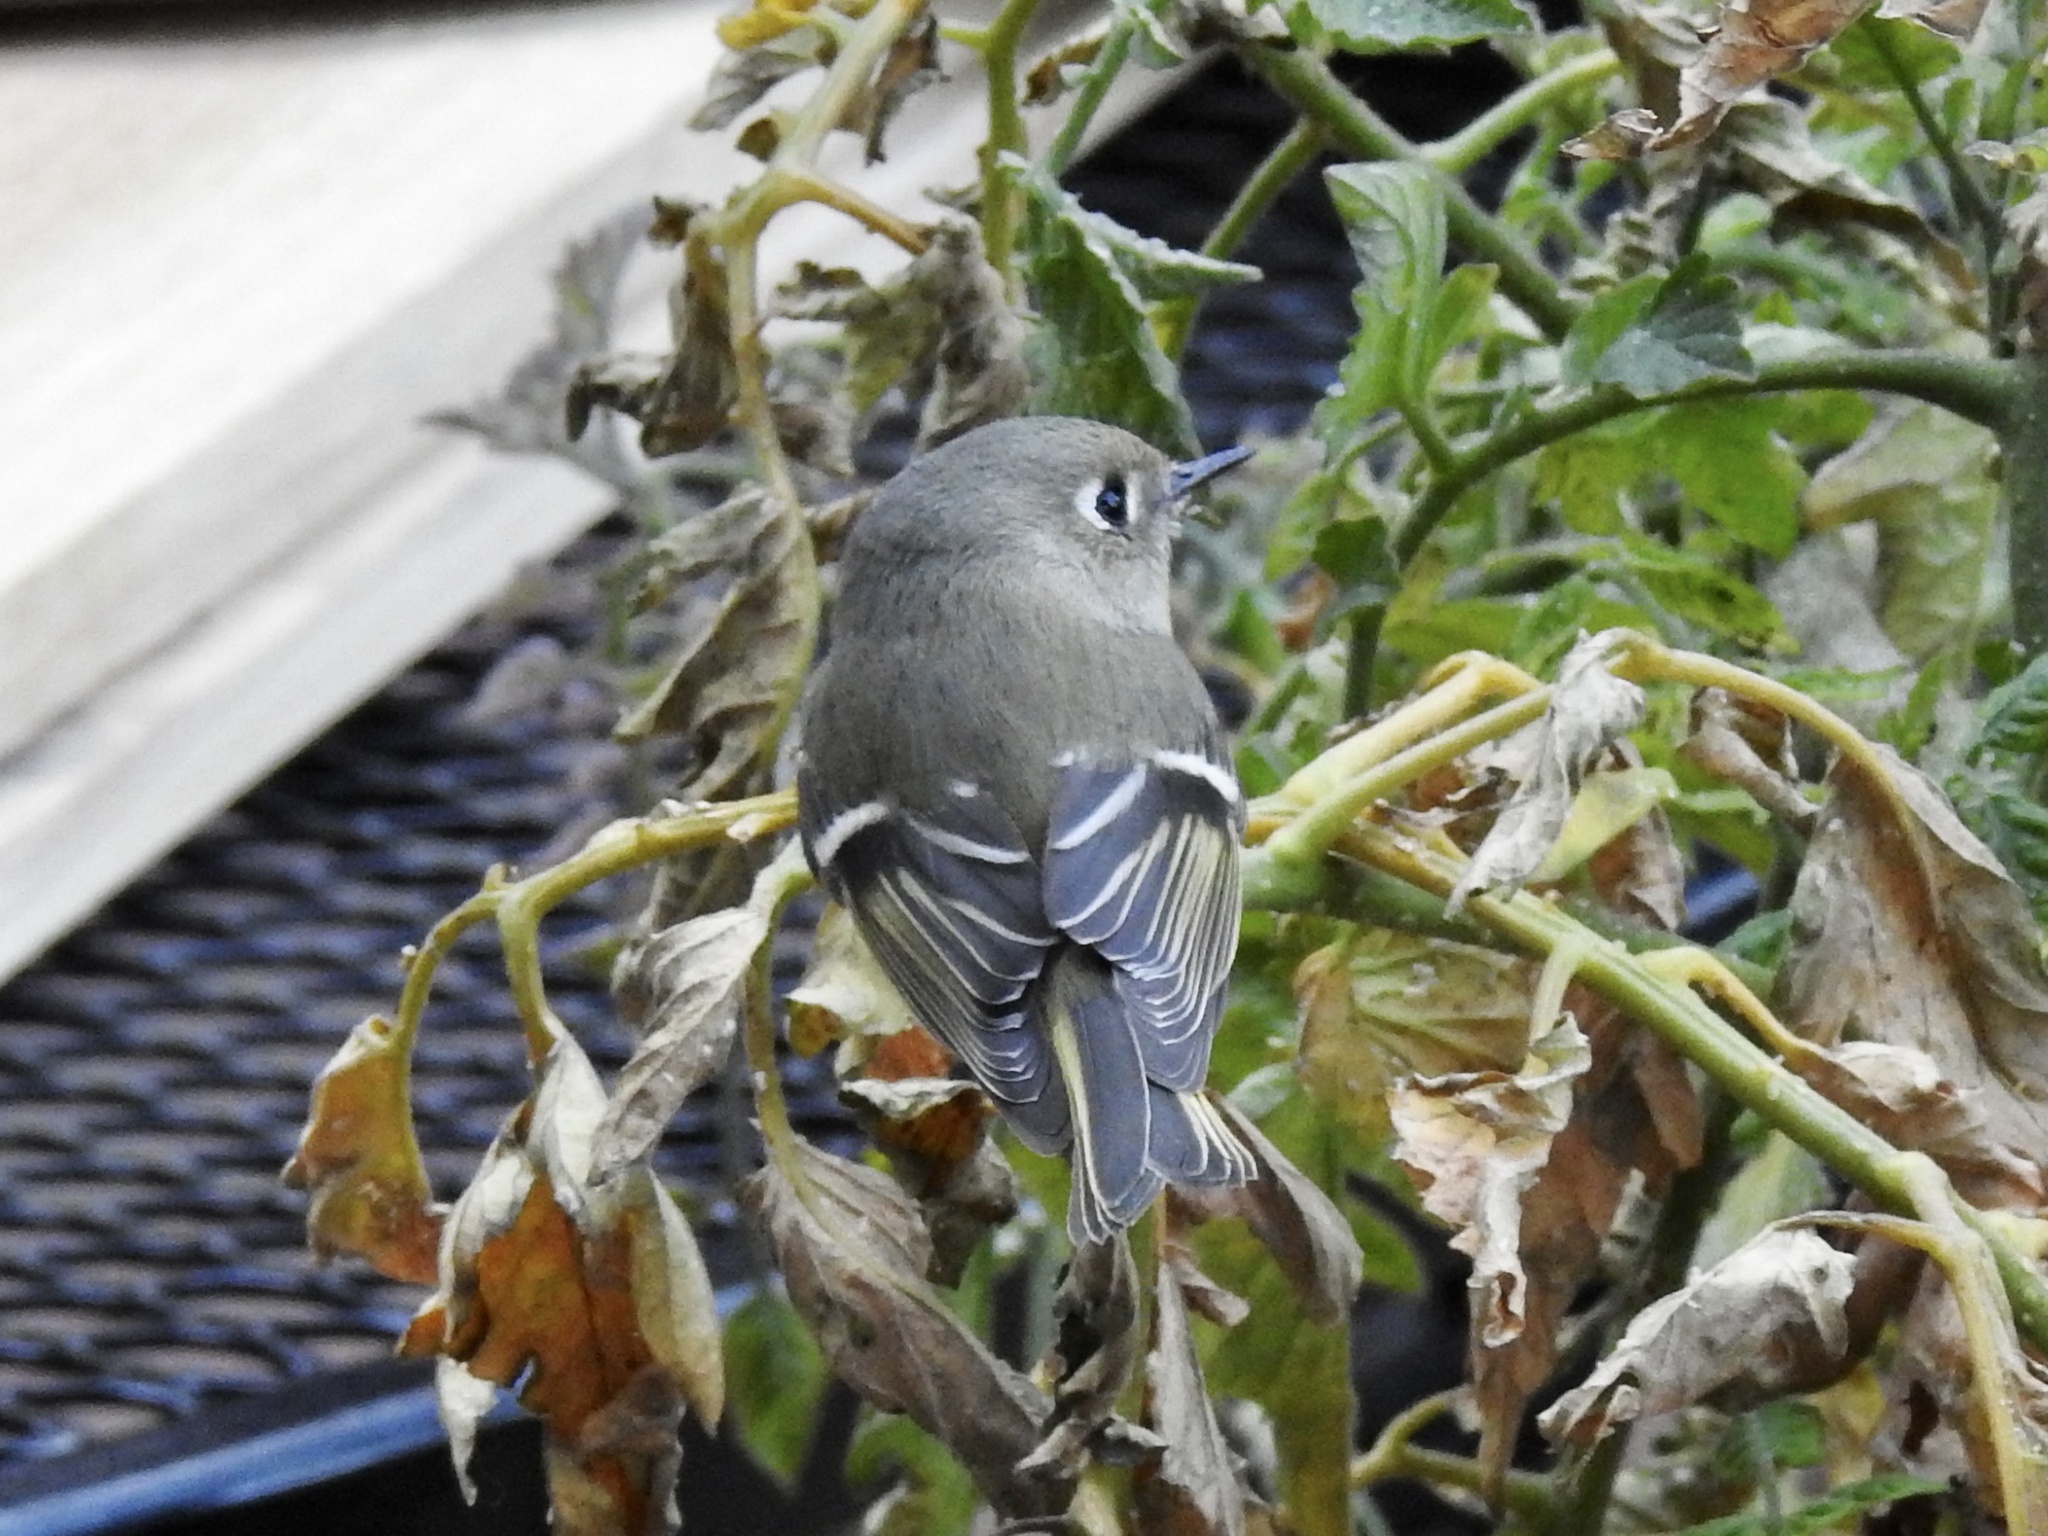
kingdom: Animalia
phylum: Chordata
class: Aves
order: Passeriformes
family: Regulidae
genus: Regulus
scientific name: Regulus calendula
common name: Ruby-crowned kinglet
